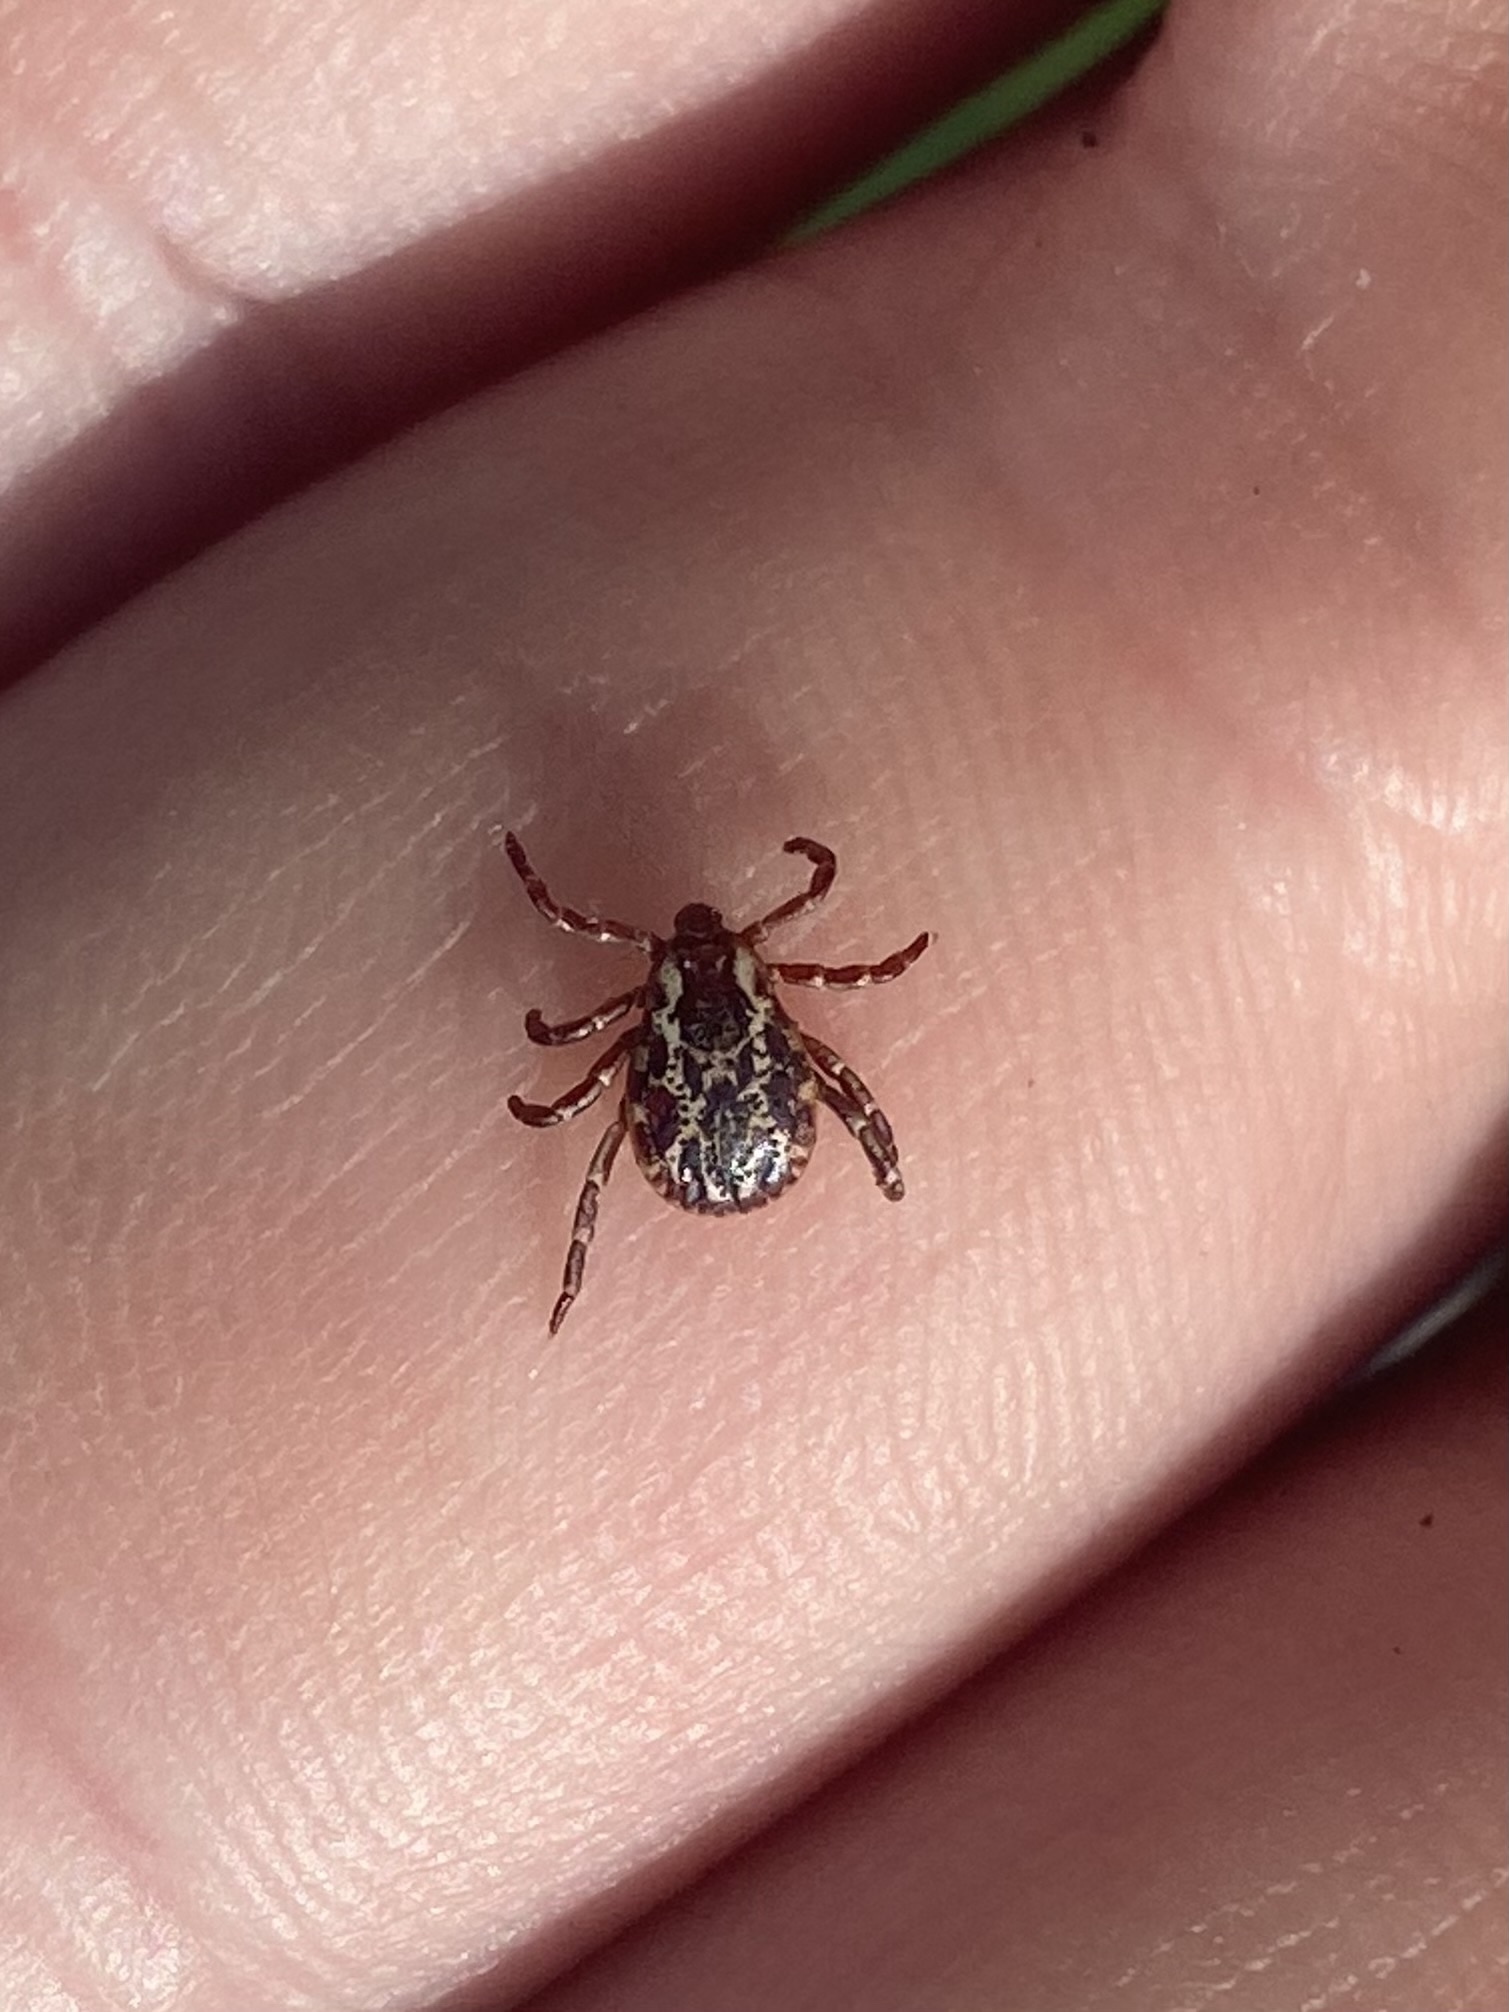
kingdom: Animalia
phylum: Arthropoda
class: Arachnida
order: Ixodida
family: Ixodidae
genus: Dermacentor
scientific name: Dermacentor variabilis
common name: American dog tick
